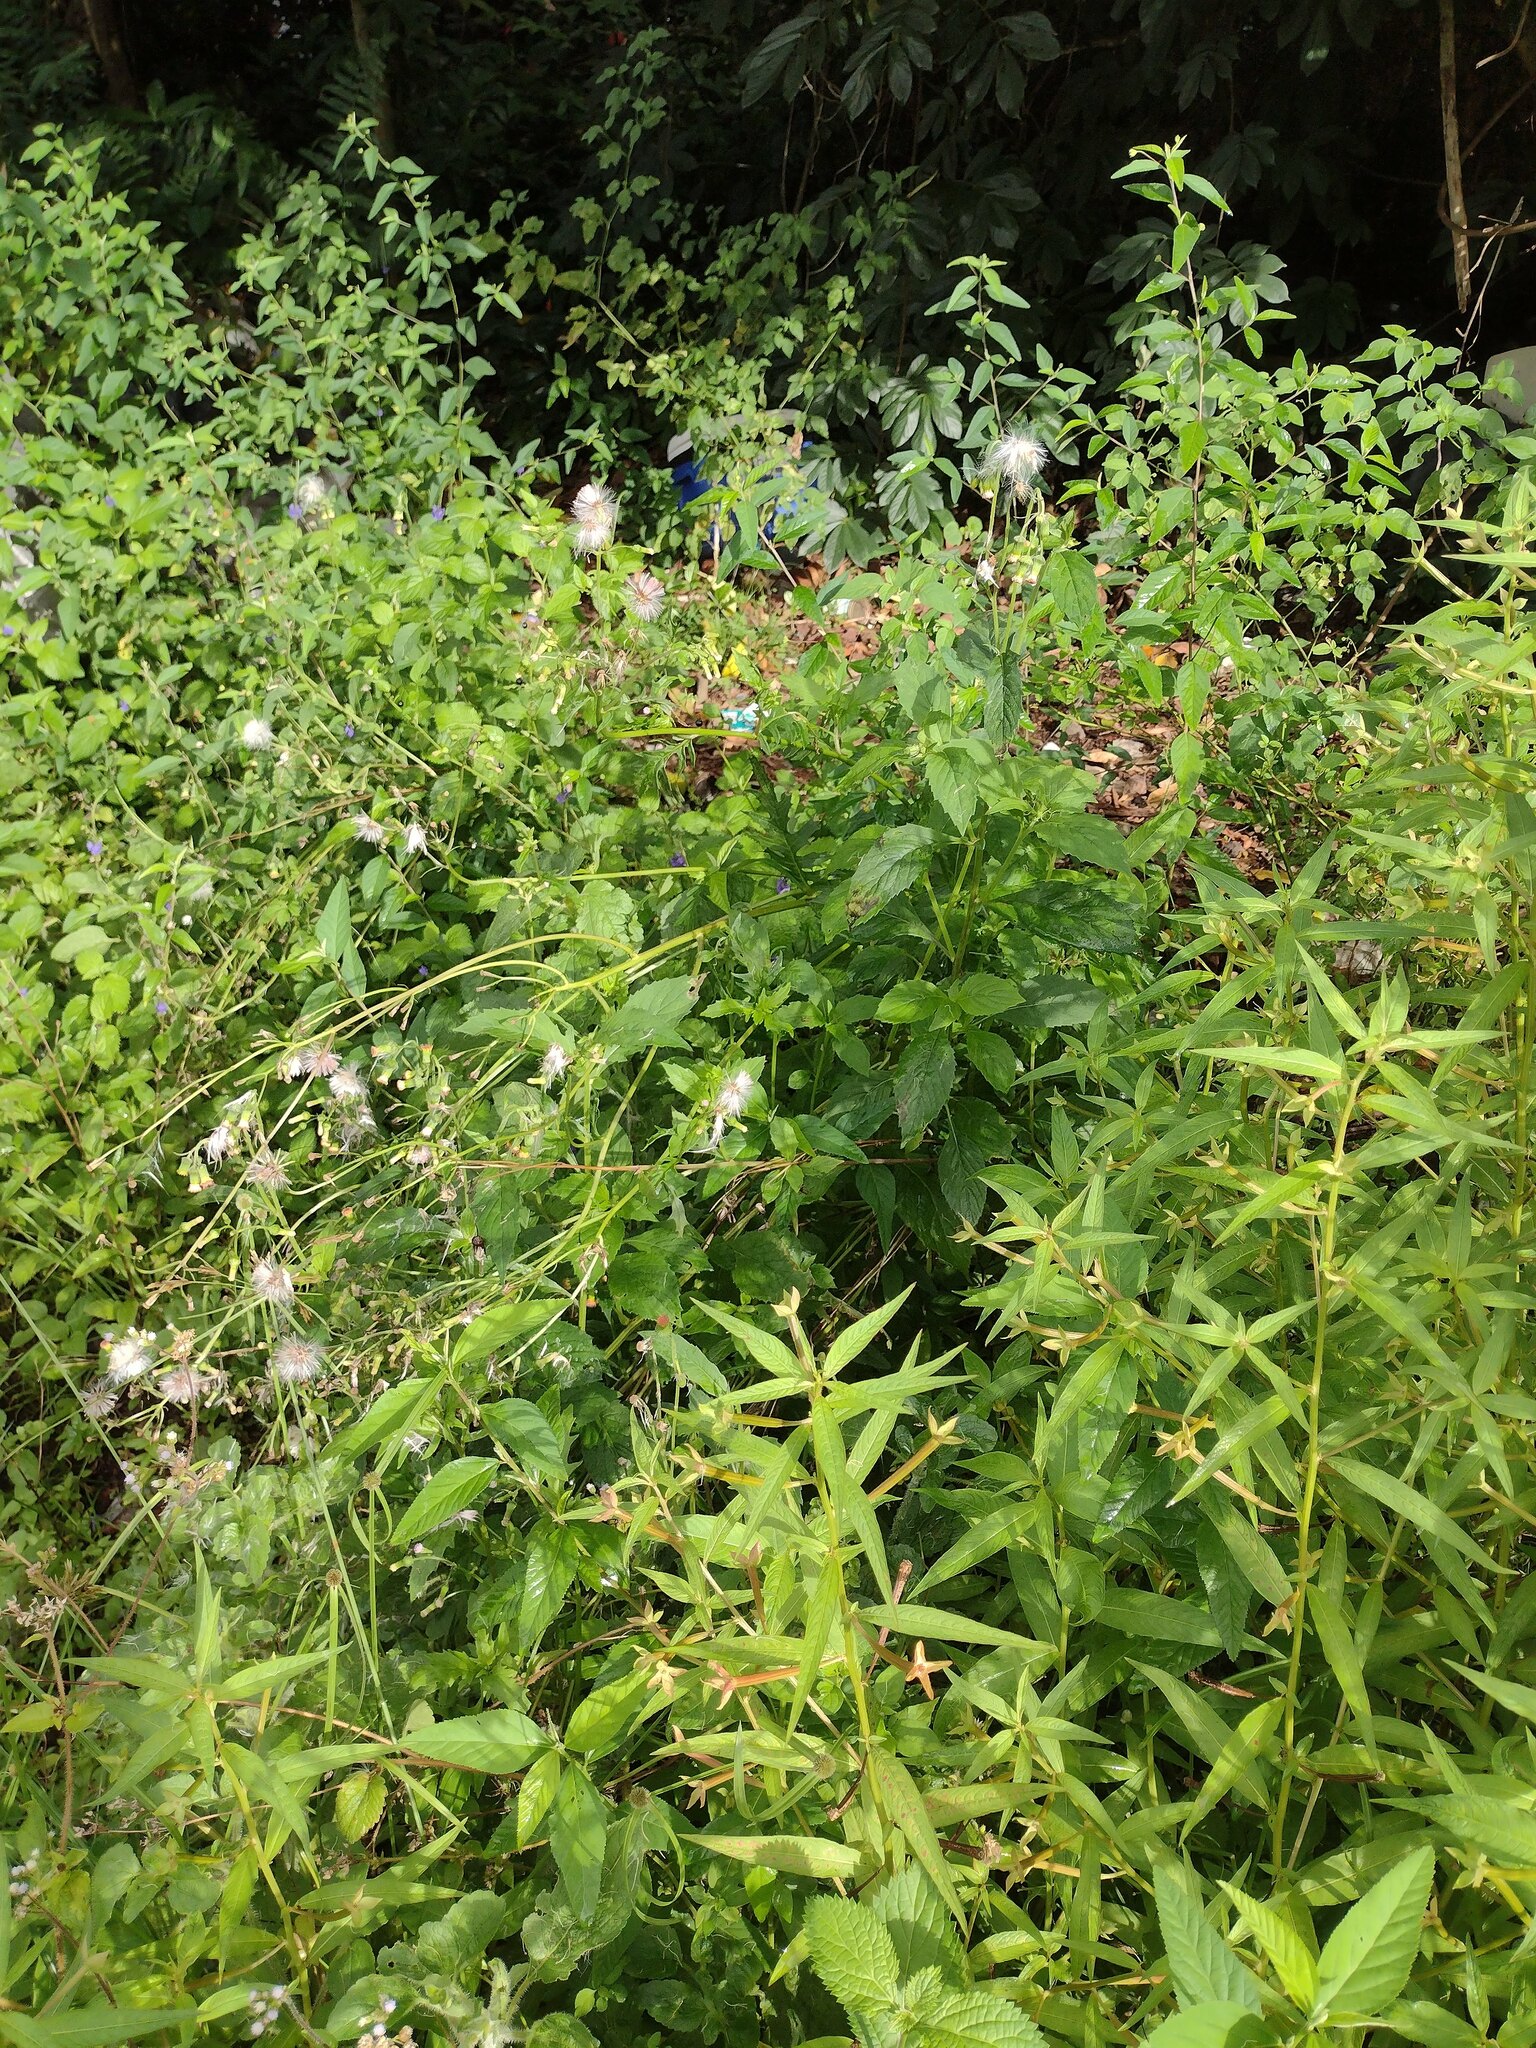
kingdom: Plantae
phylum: Tracheophyta
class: Magnoliopsida
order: Asterales
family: Asteraceae
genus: Crassocephalum
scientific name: Crassocephalum crepidioides
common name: Redflower ragleaf
